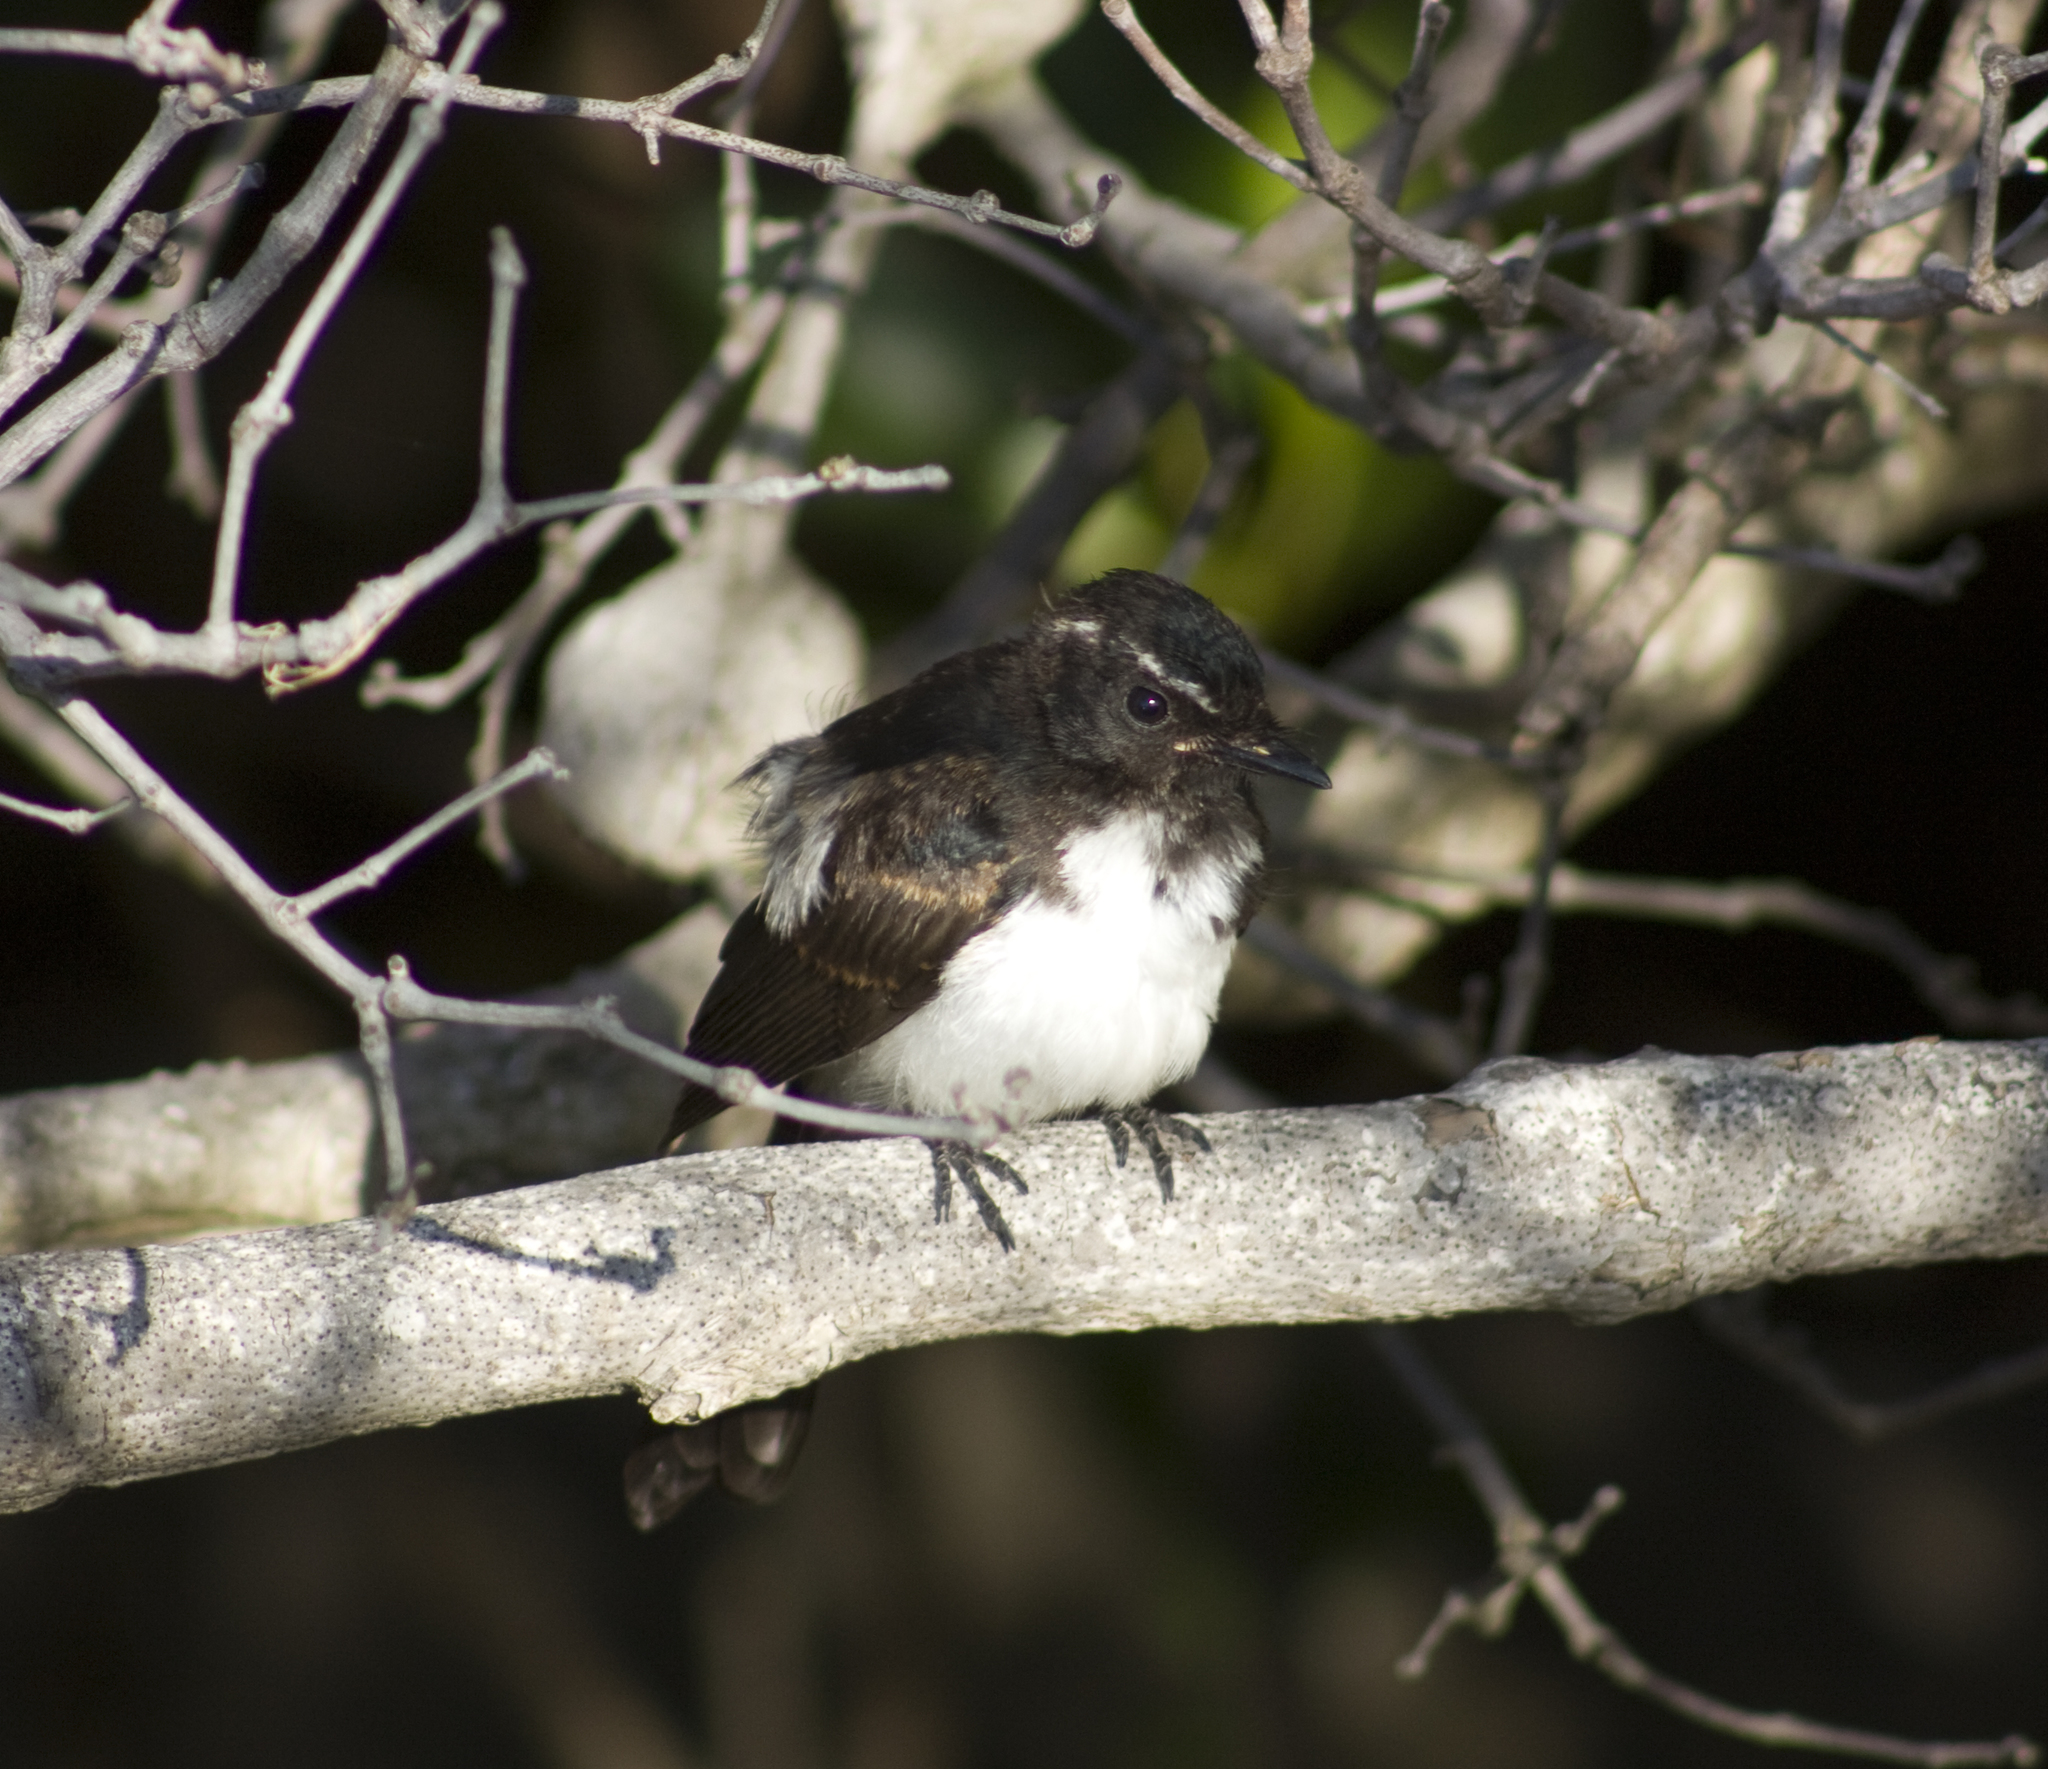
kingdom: Animalia
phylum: Chordata
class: Aves
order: Passeriformes
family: Rhipiduridae
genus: Rhipidura
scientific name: Rhipidura leucophrys
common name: Willie wagtail
